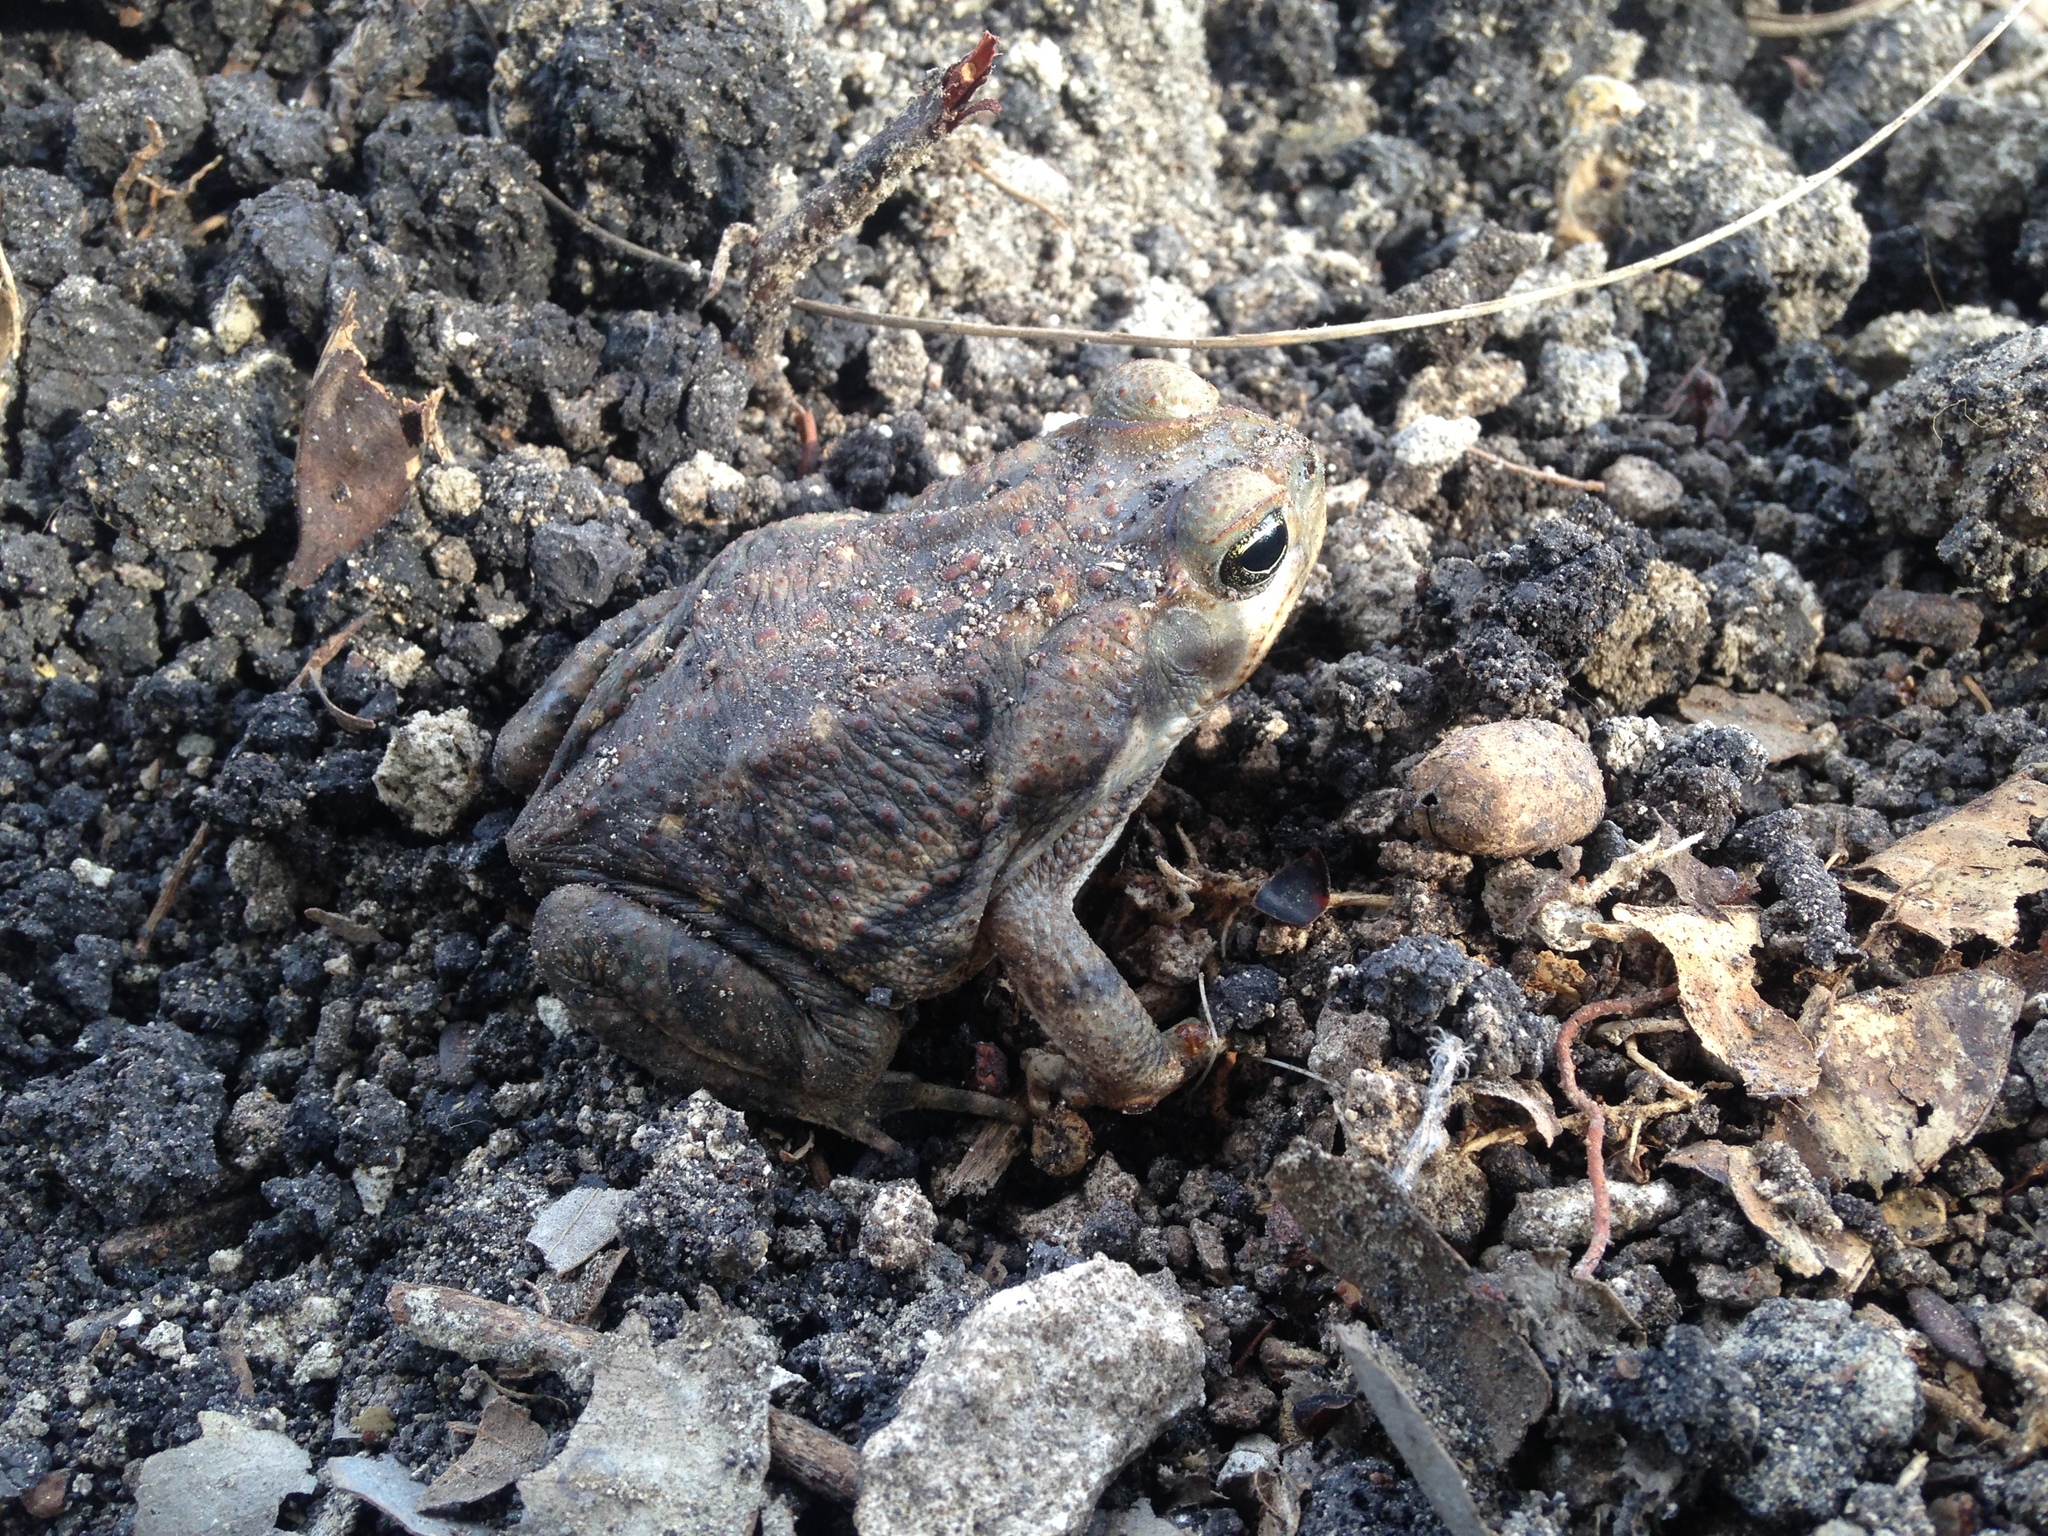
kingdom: Animalia
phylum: Chordata
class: Amphibia
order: Anura
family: Bufonidae
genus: Rhinella
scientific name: Rhinella horribilis
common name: Mesoamerican cane toad
